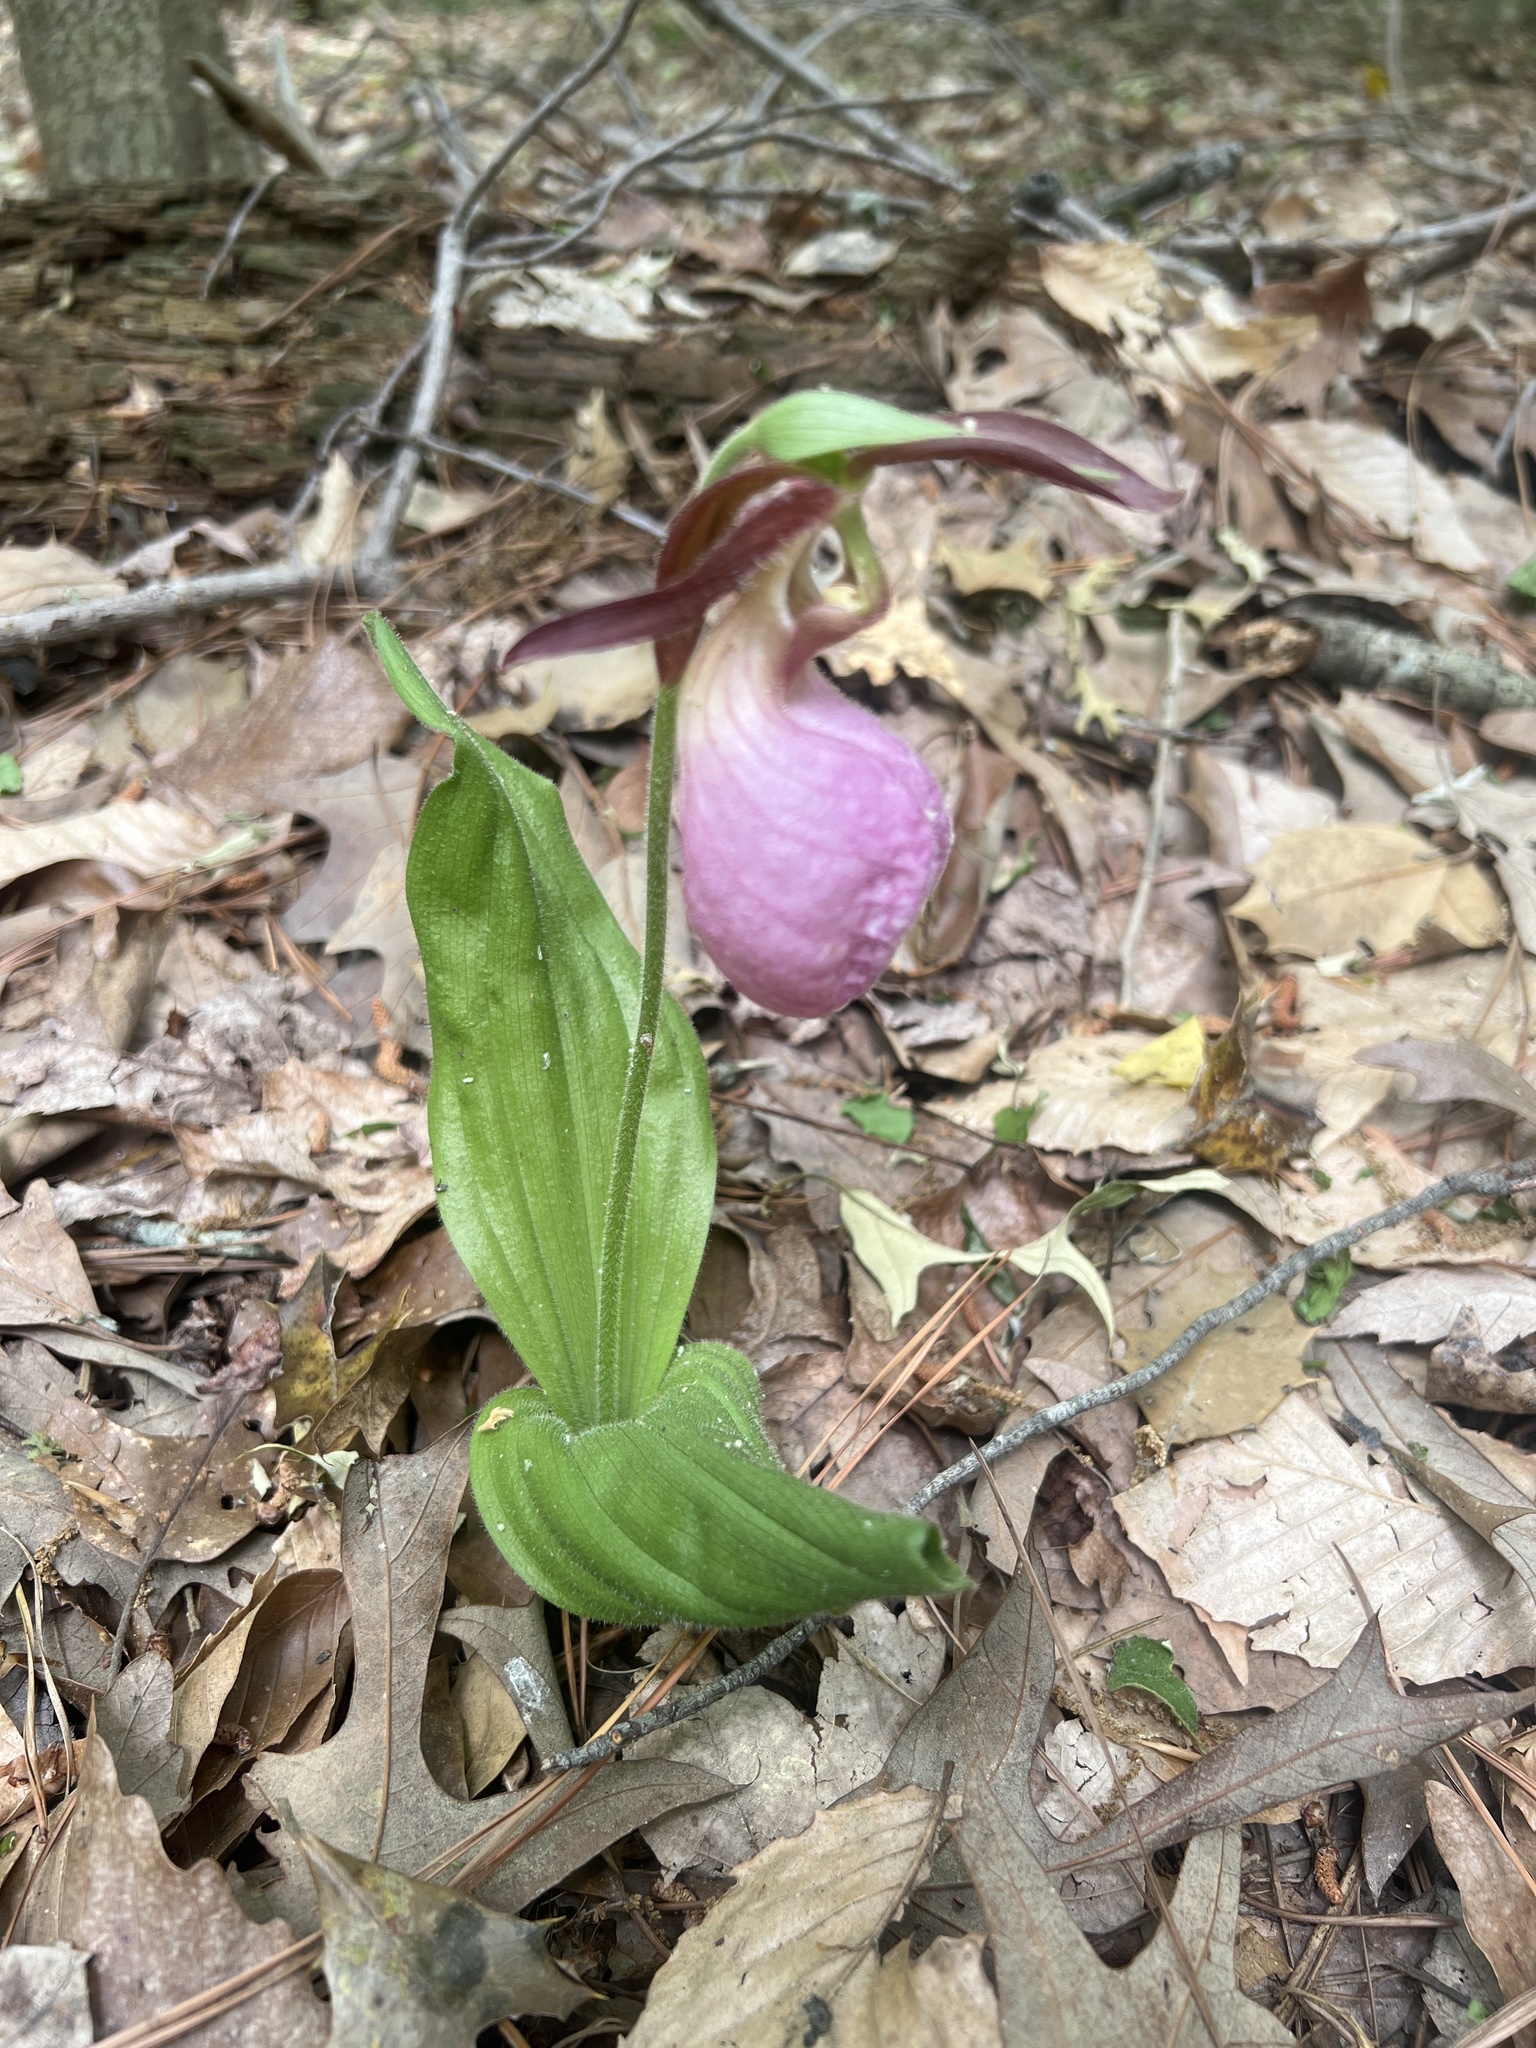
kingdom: Plantae
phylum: Tracheophyta
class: Liliopsida
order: Asparagales
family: Orchidaceae
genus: Cypripedium
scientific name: Cypripedium acaule
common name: Pink lady's-slipper
